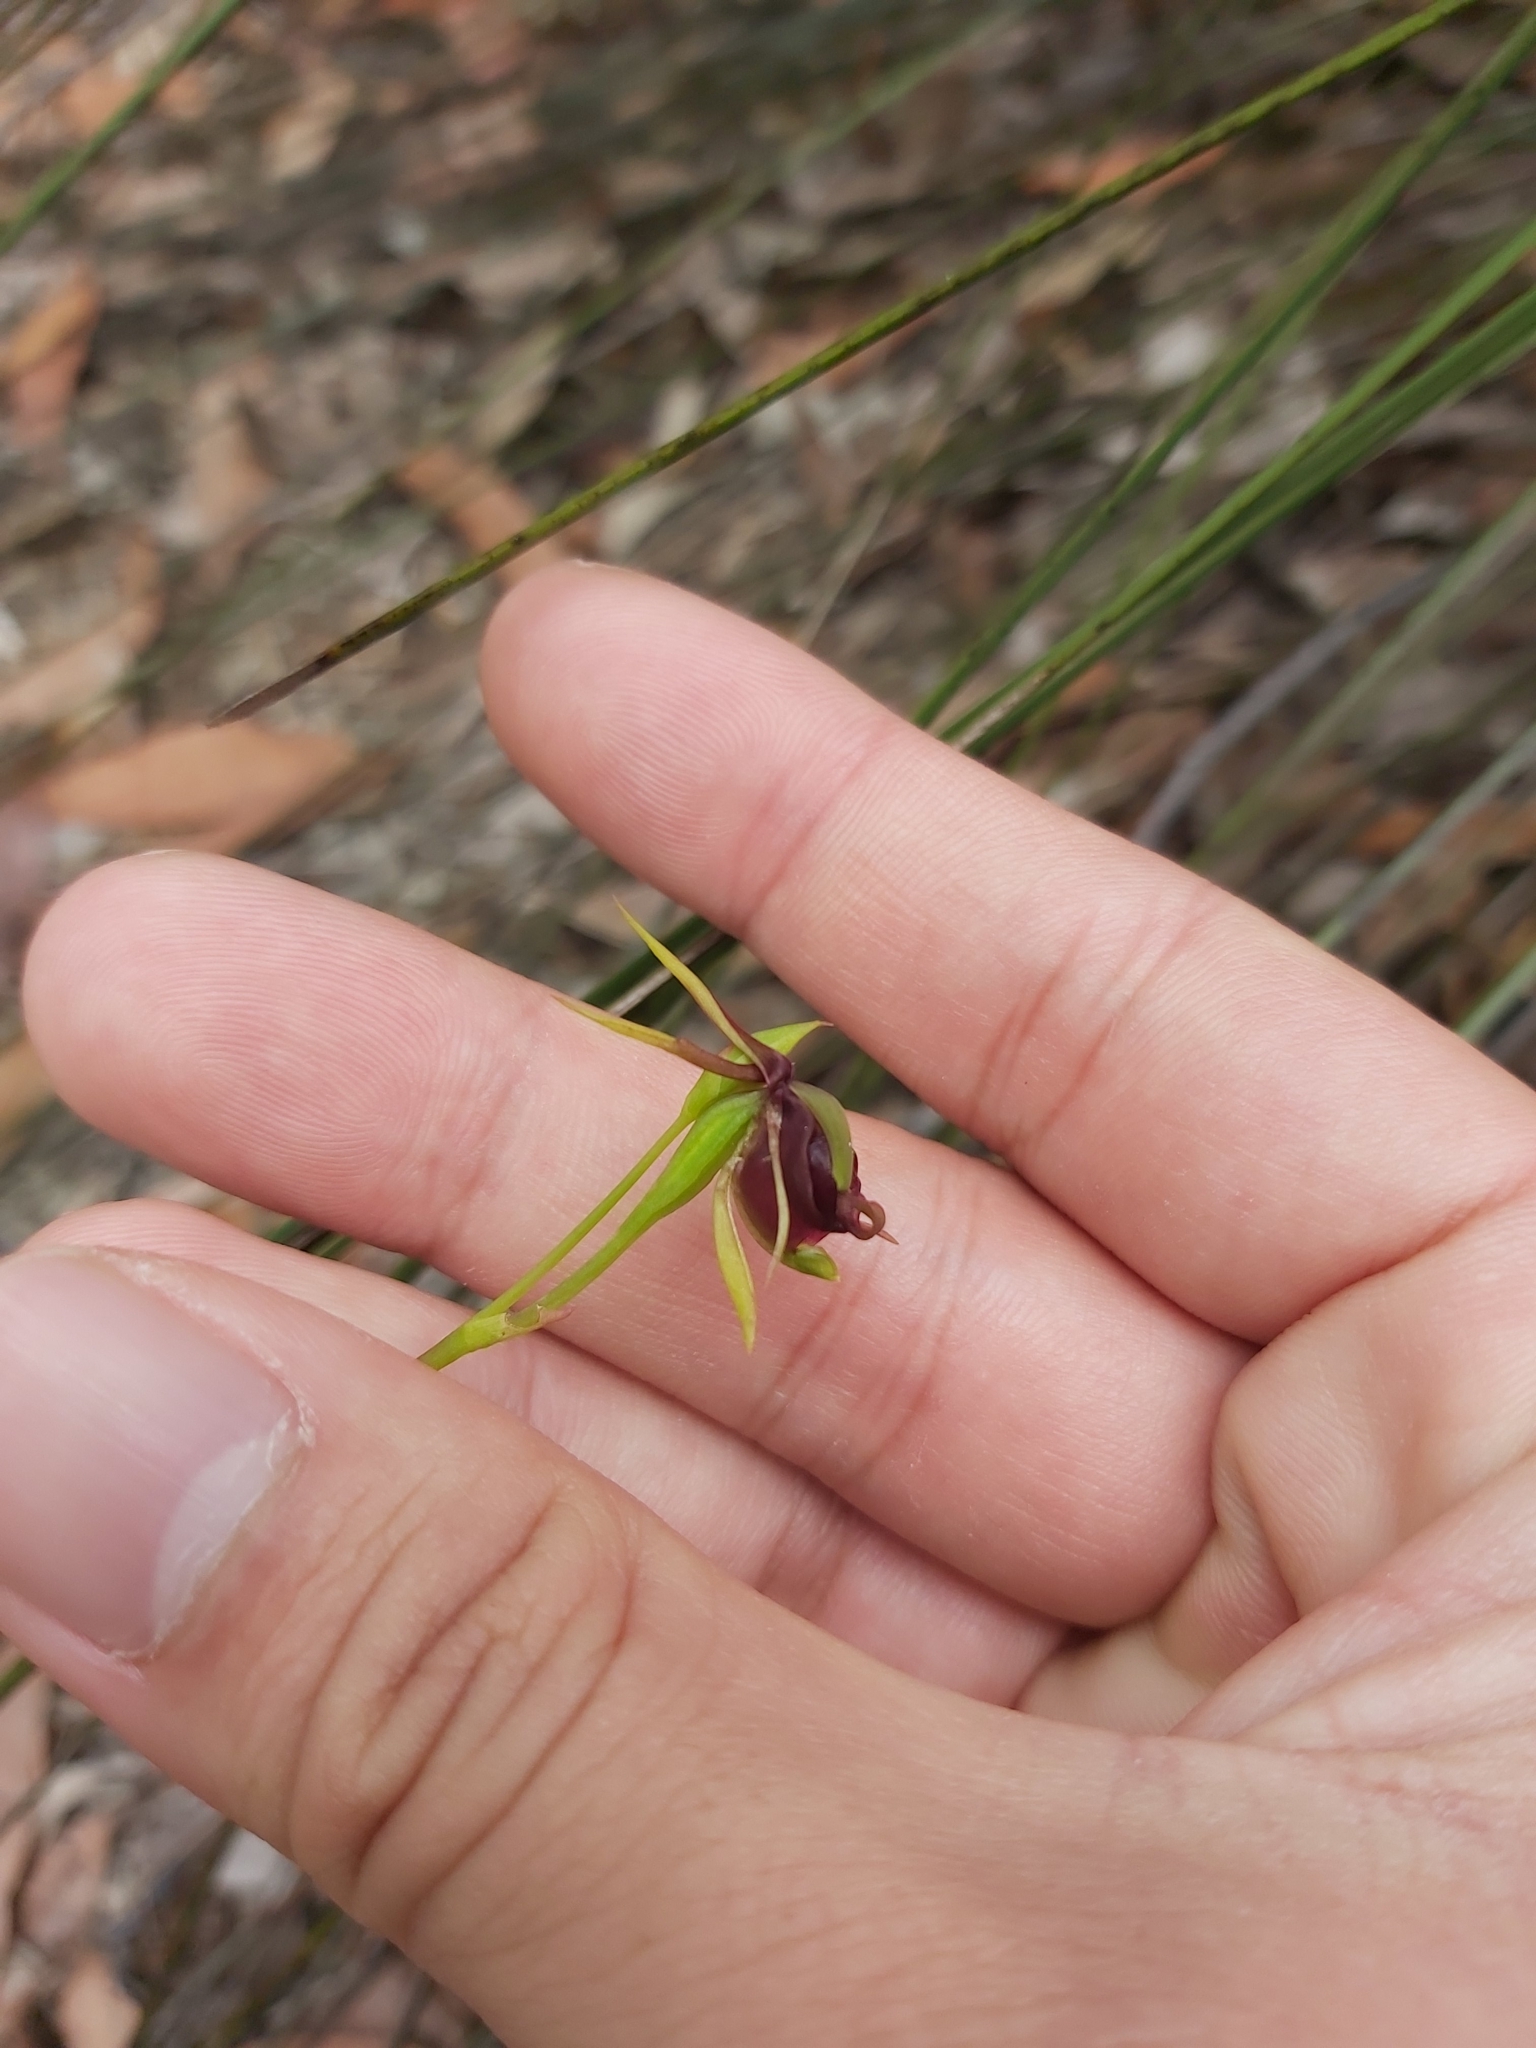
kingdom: Plantae
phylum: Tracheophyta
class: Liliopsida
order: Asparagales
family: Orchidaceae
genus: Caleana
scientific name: Caleana major
